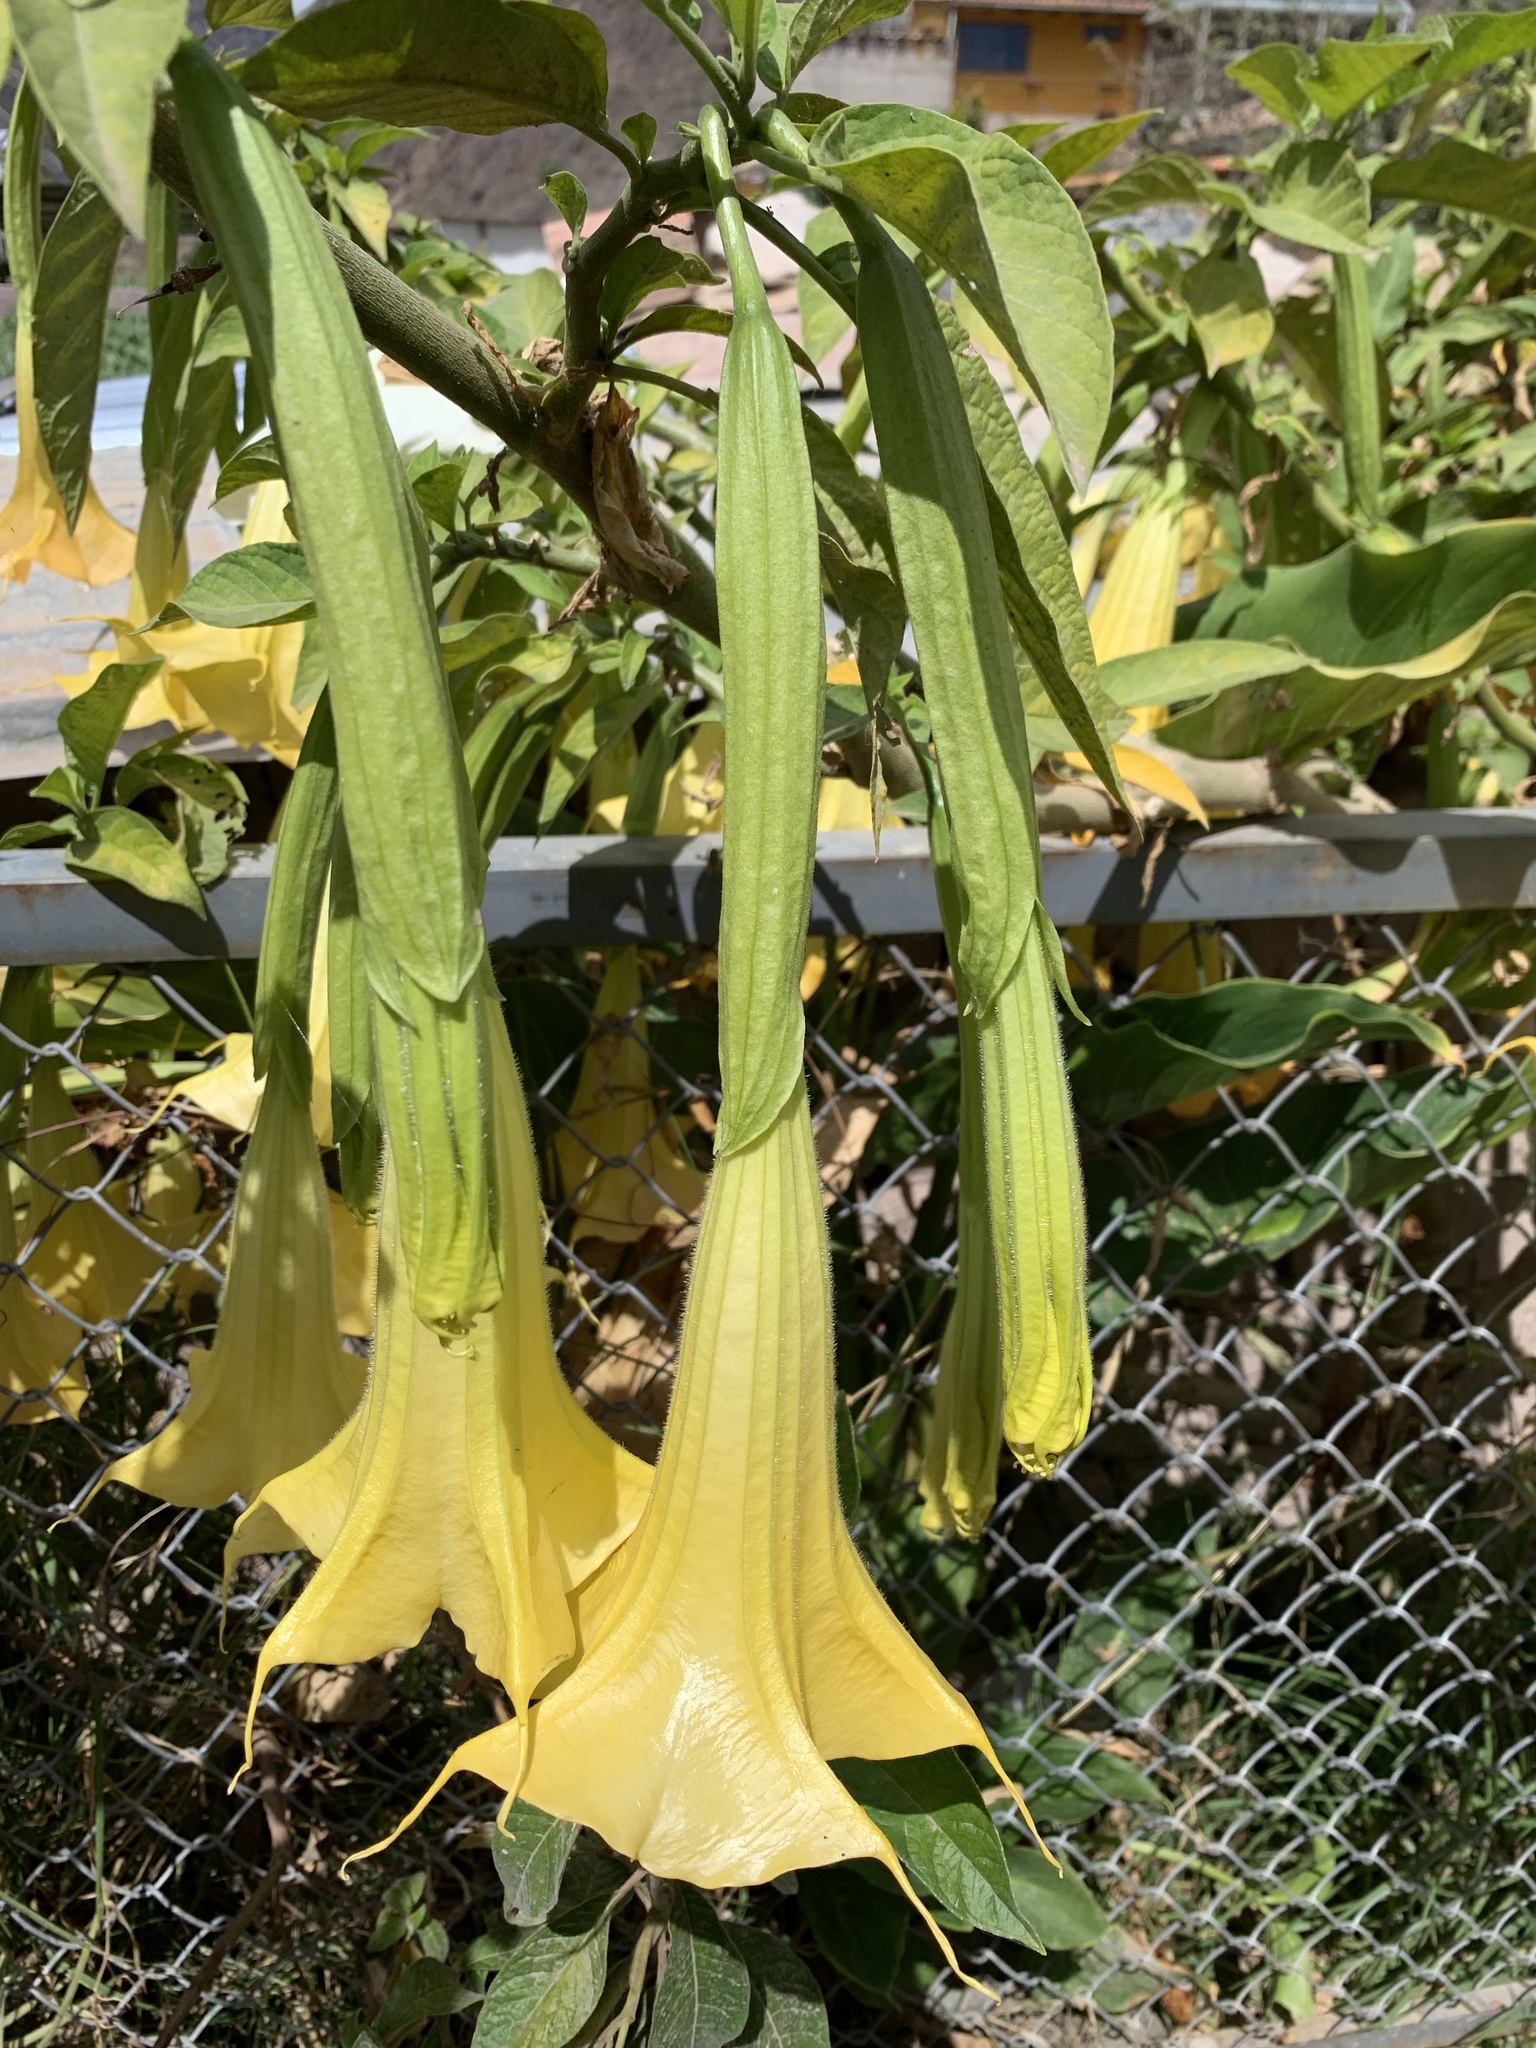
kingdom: Plantae
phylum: Tracheophyta
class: Magnoliopsida
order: Solanales
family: Solanaceae
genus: Brugmansia
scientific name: Brugmansia aurea
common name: Yellow angel's-trumpet
